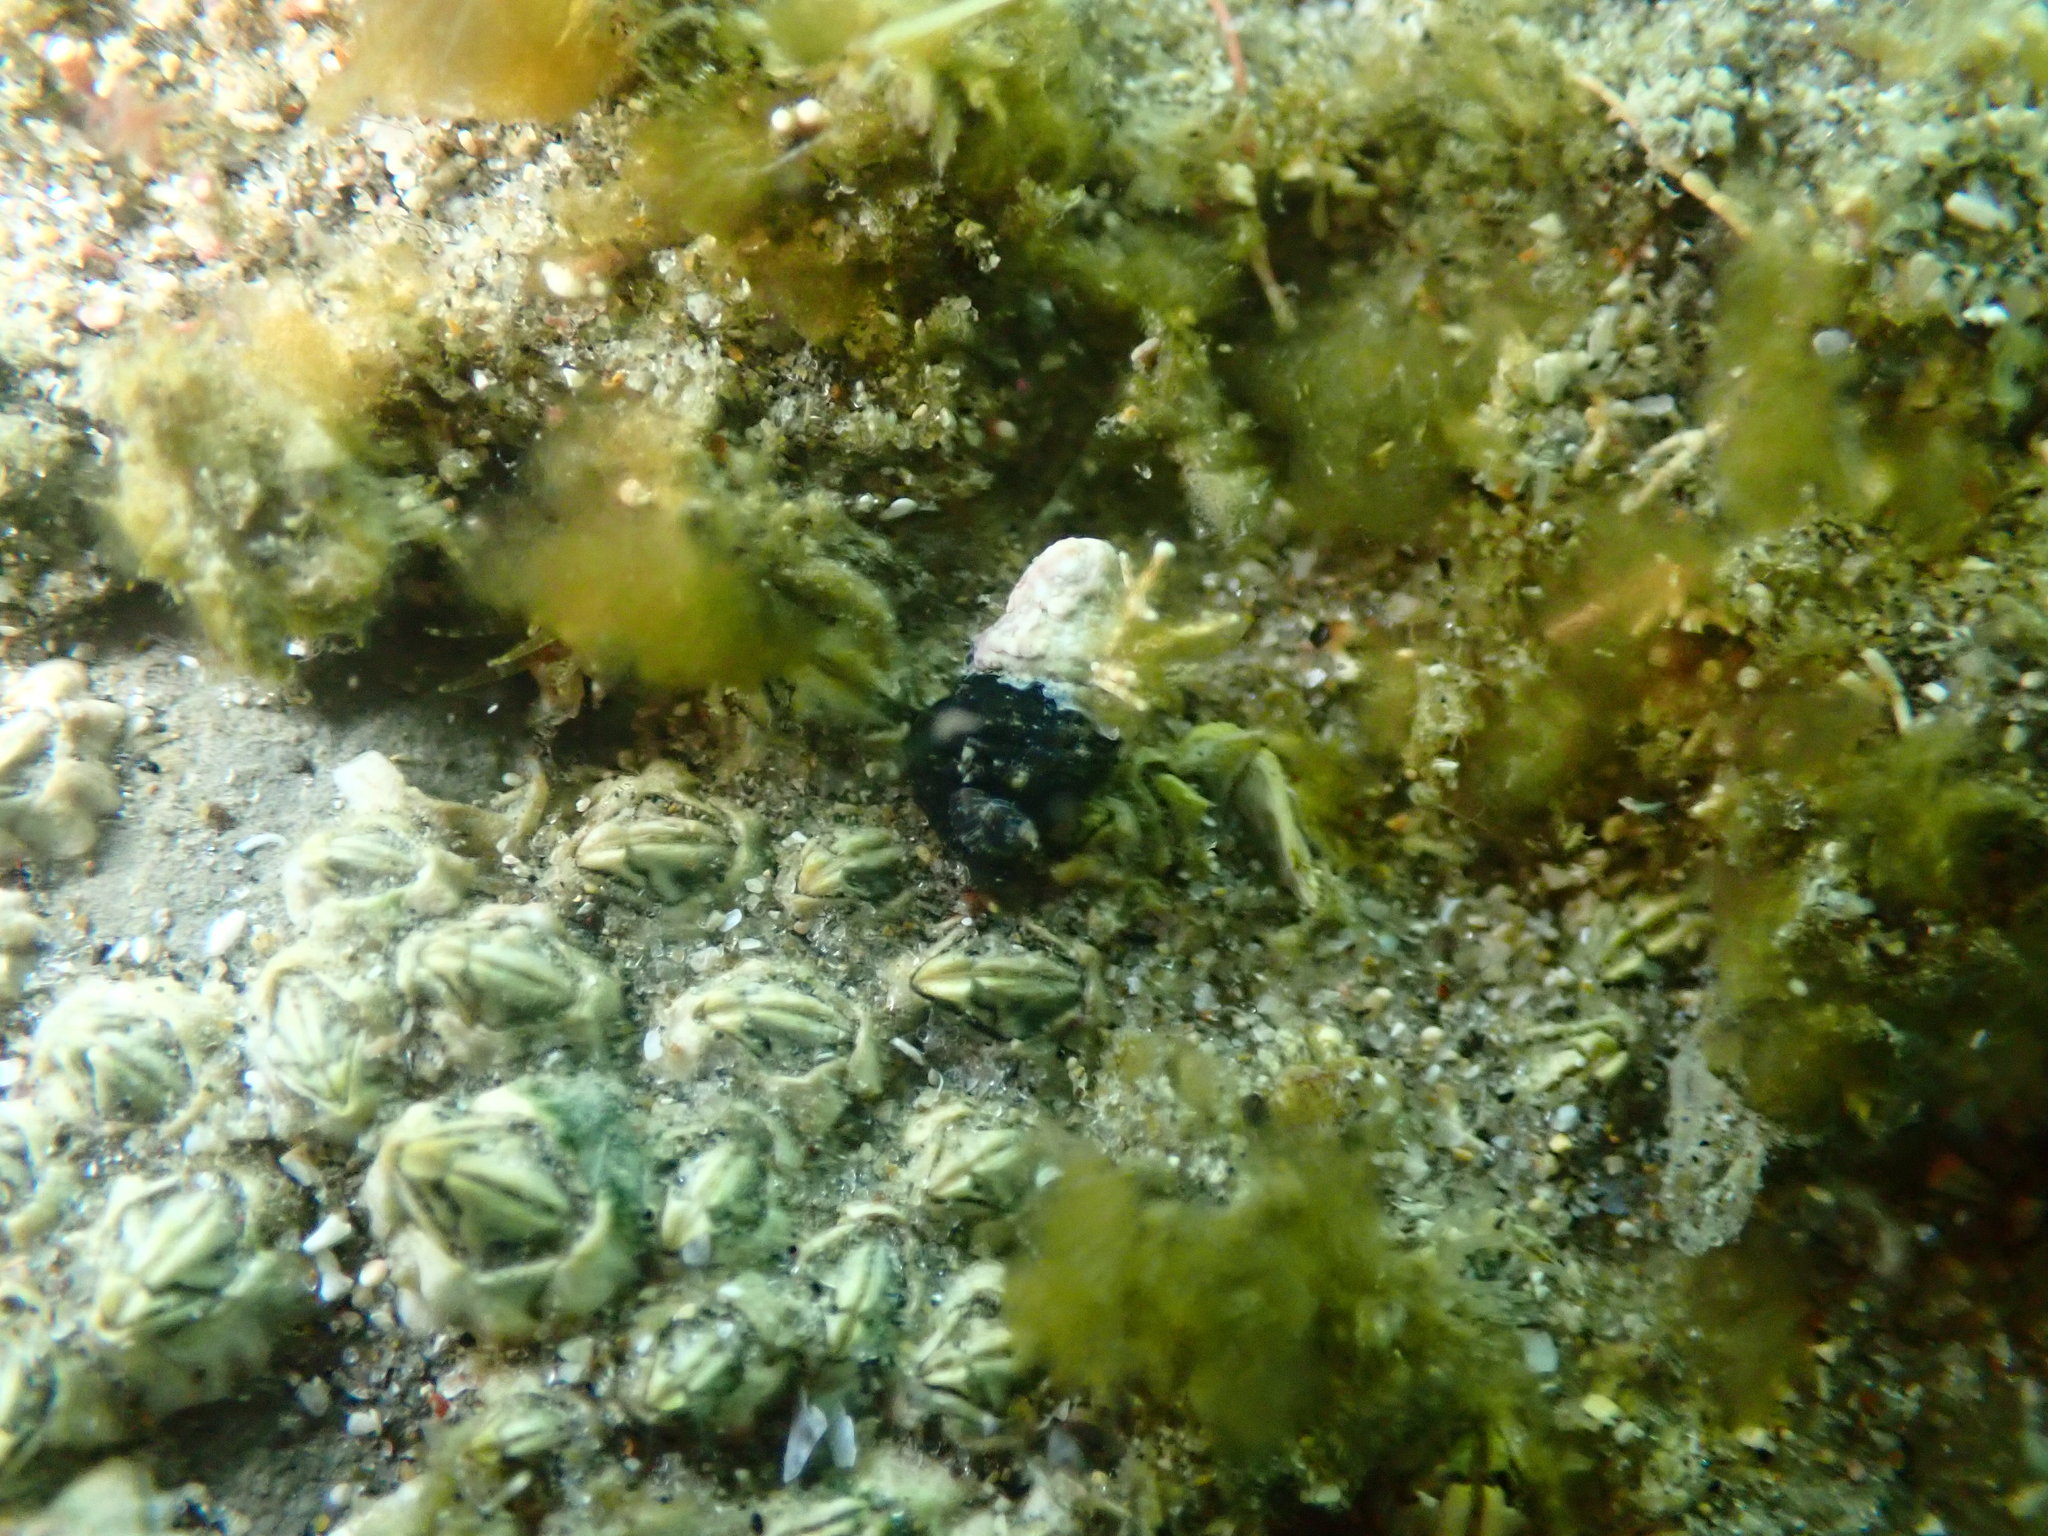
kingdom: Animalia
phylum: Mollusca
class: Gastropoda
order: Neogastropoda
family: Fasciolariidae
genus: Taron
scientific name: Taron dubius
